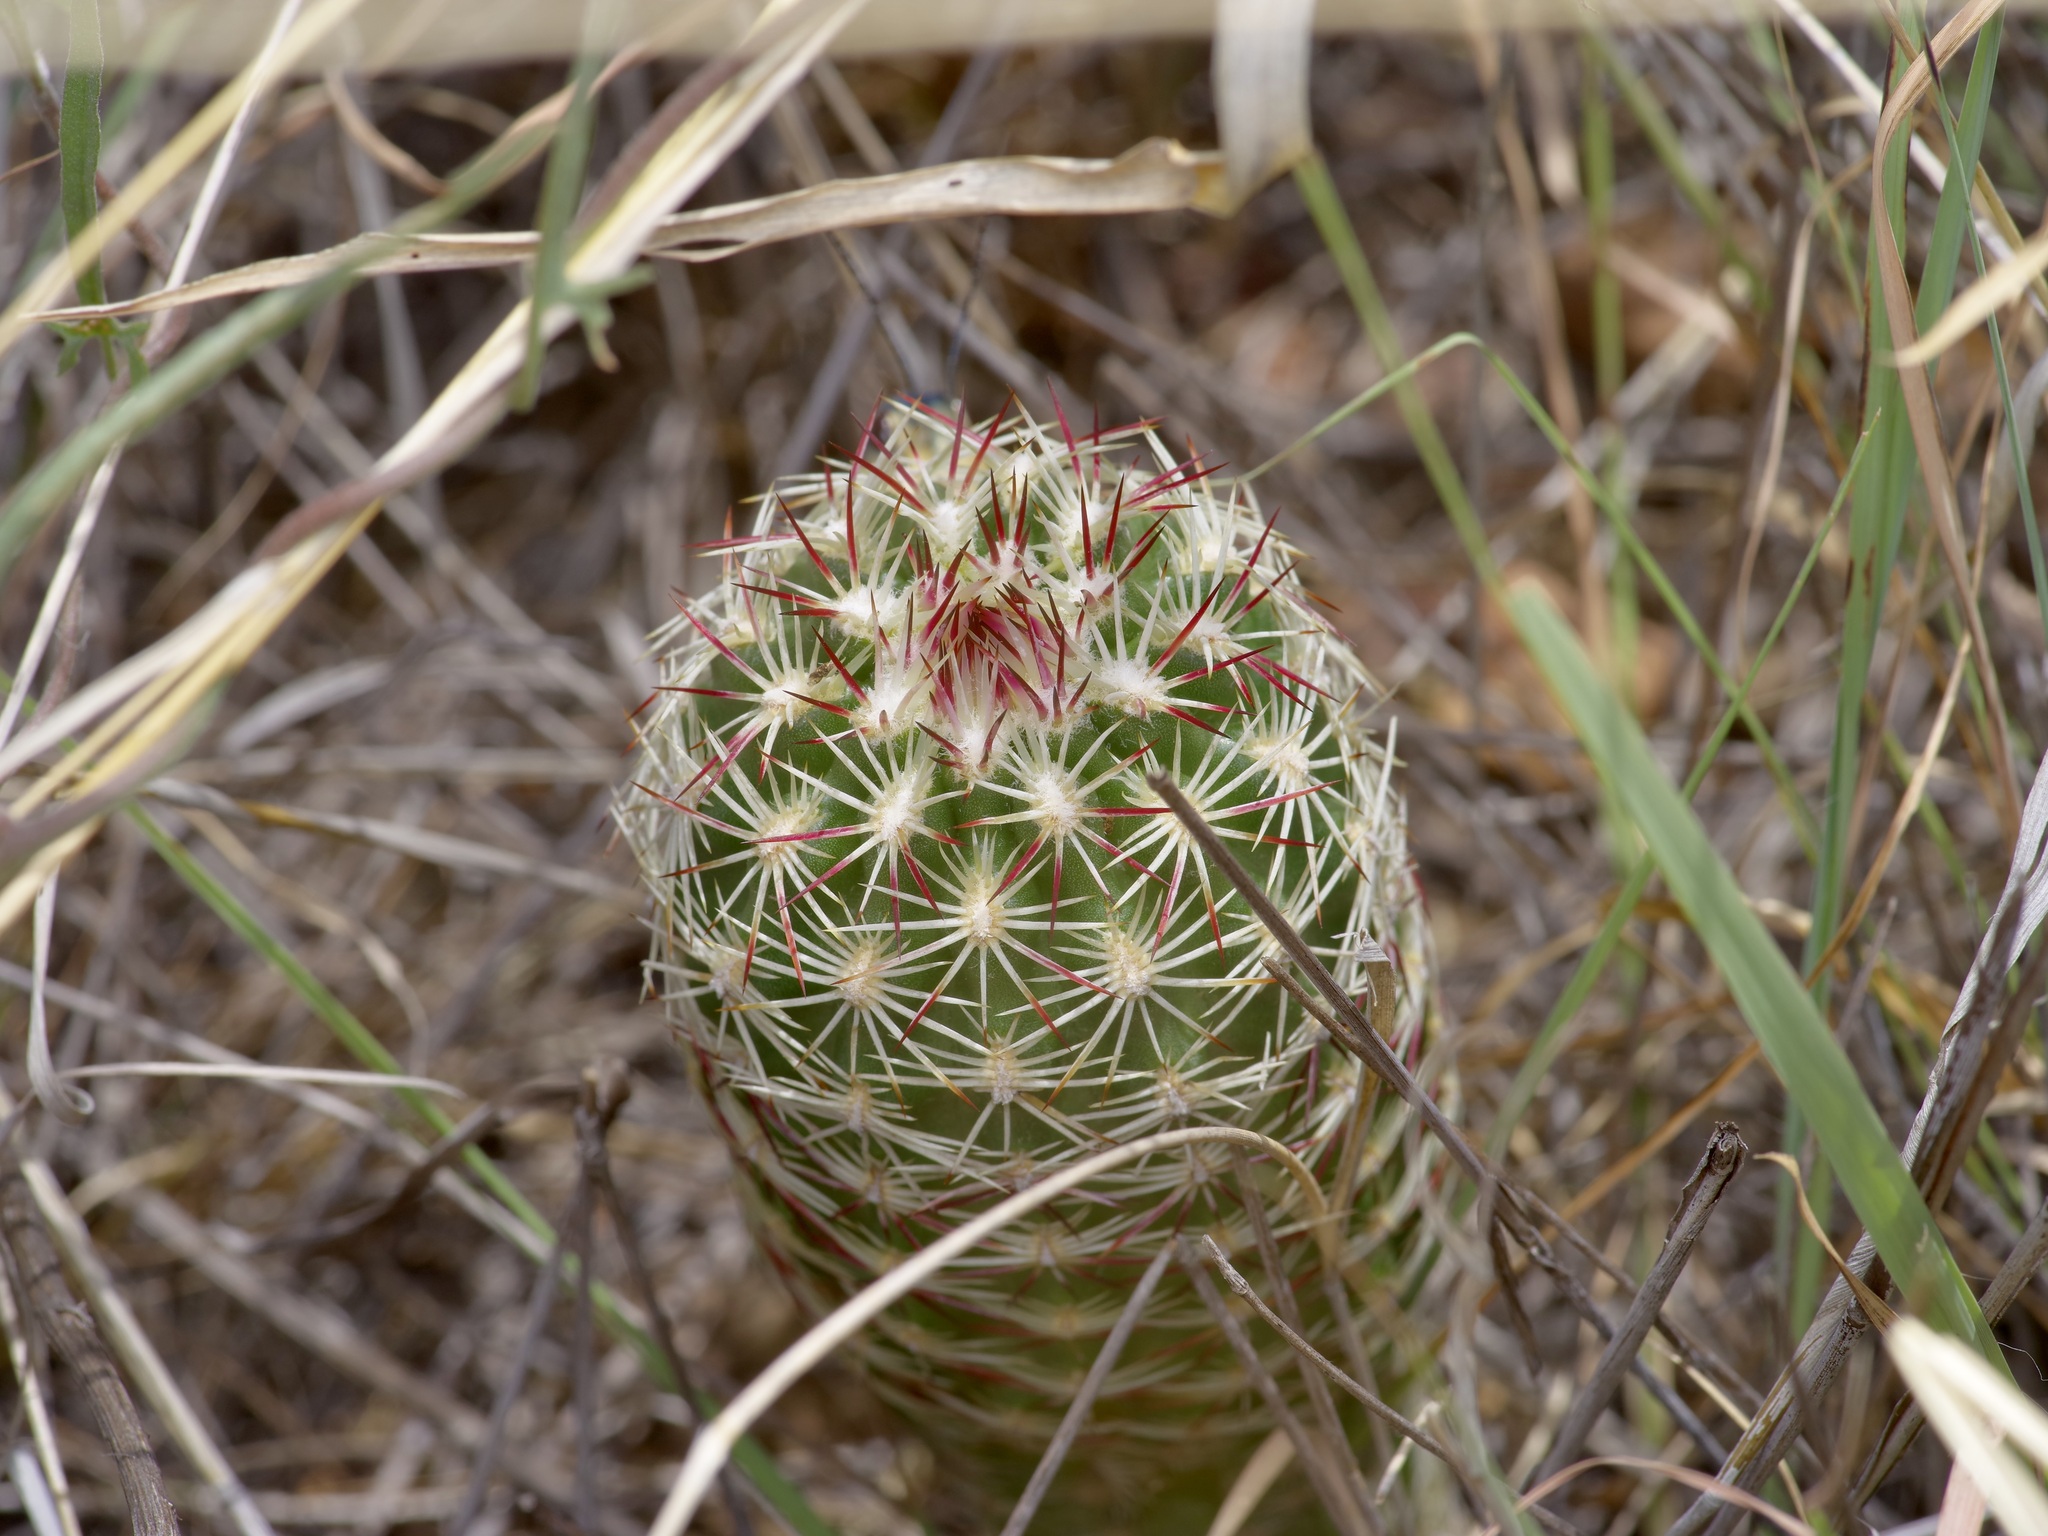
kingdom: Plantae
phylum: Tracheophyta
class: Magnoliopsida
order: Caryophyllales
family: Cactaceae
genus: Echinocereus
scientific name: Echinocereus viridiflorus
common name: Nylon hedgehog cactus
